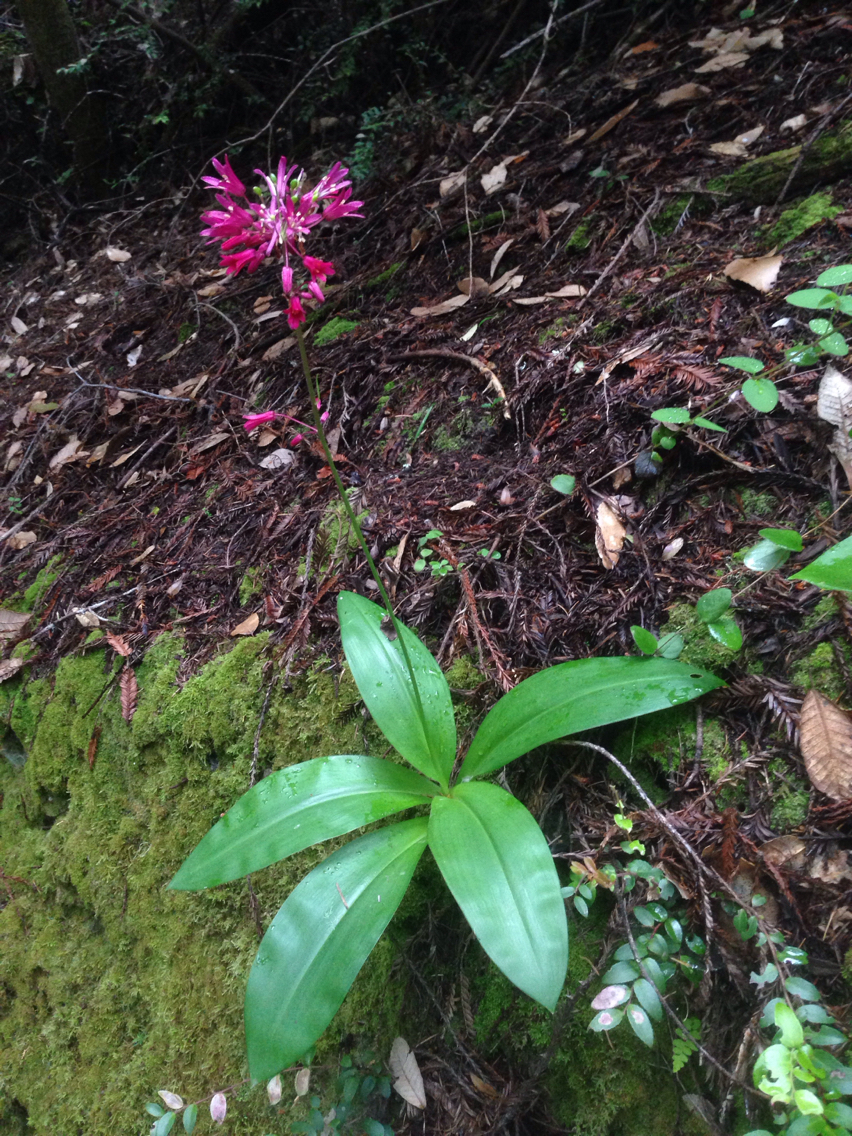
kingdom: Plantae
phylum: Tracheophyta
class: Liliopsida
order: Liliales
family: Liliaceae
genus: Clintonia
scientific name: Clintonia andrewsiana
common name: Red clintonia
